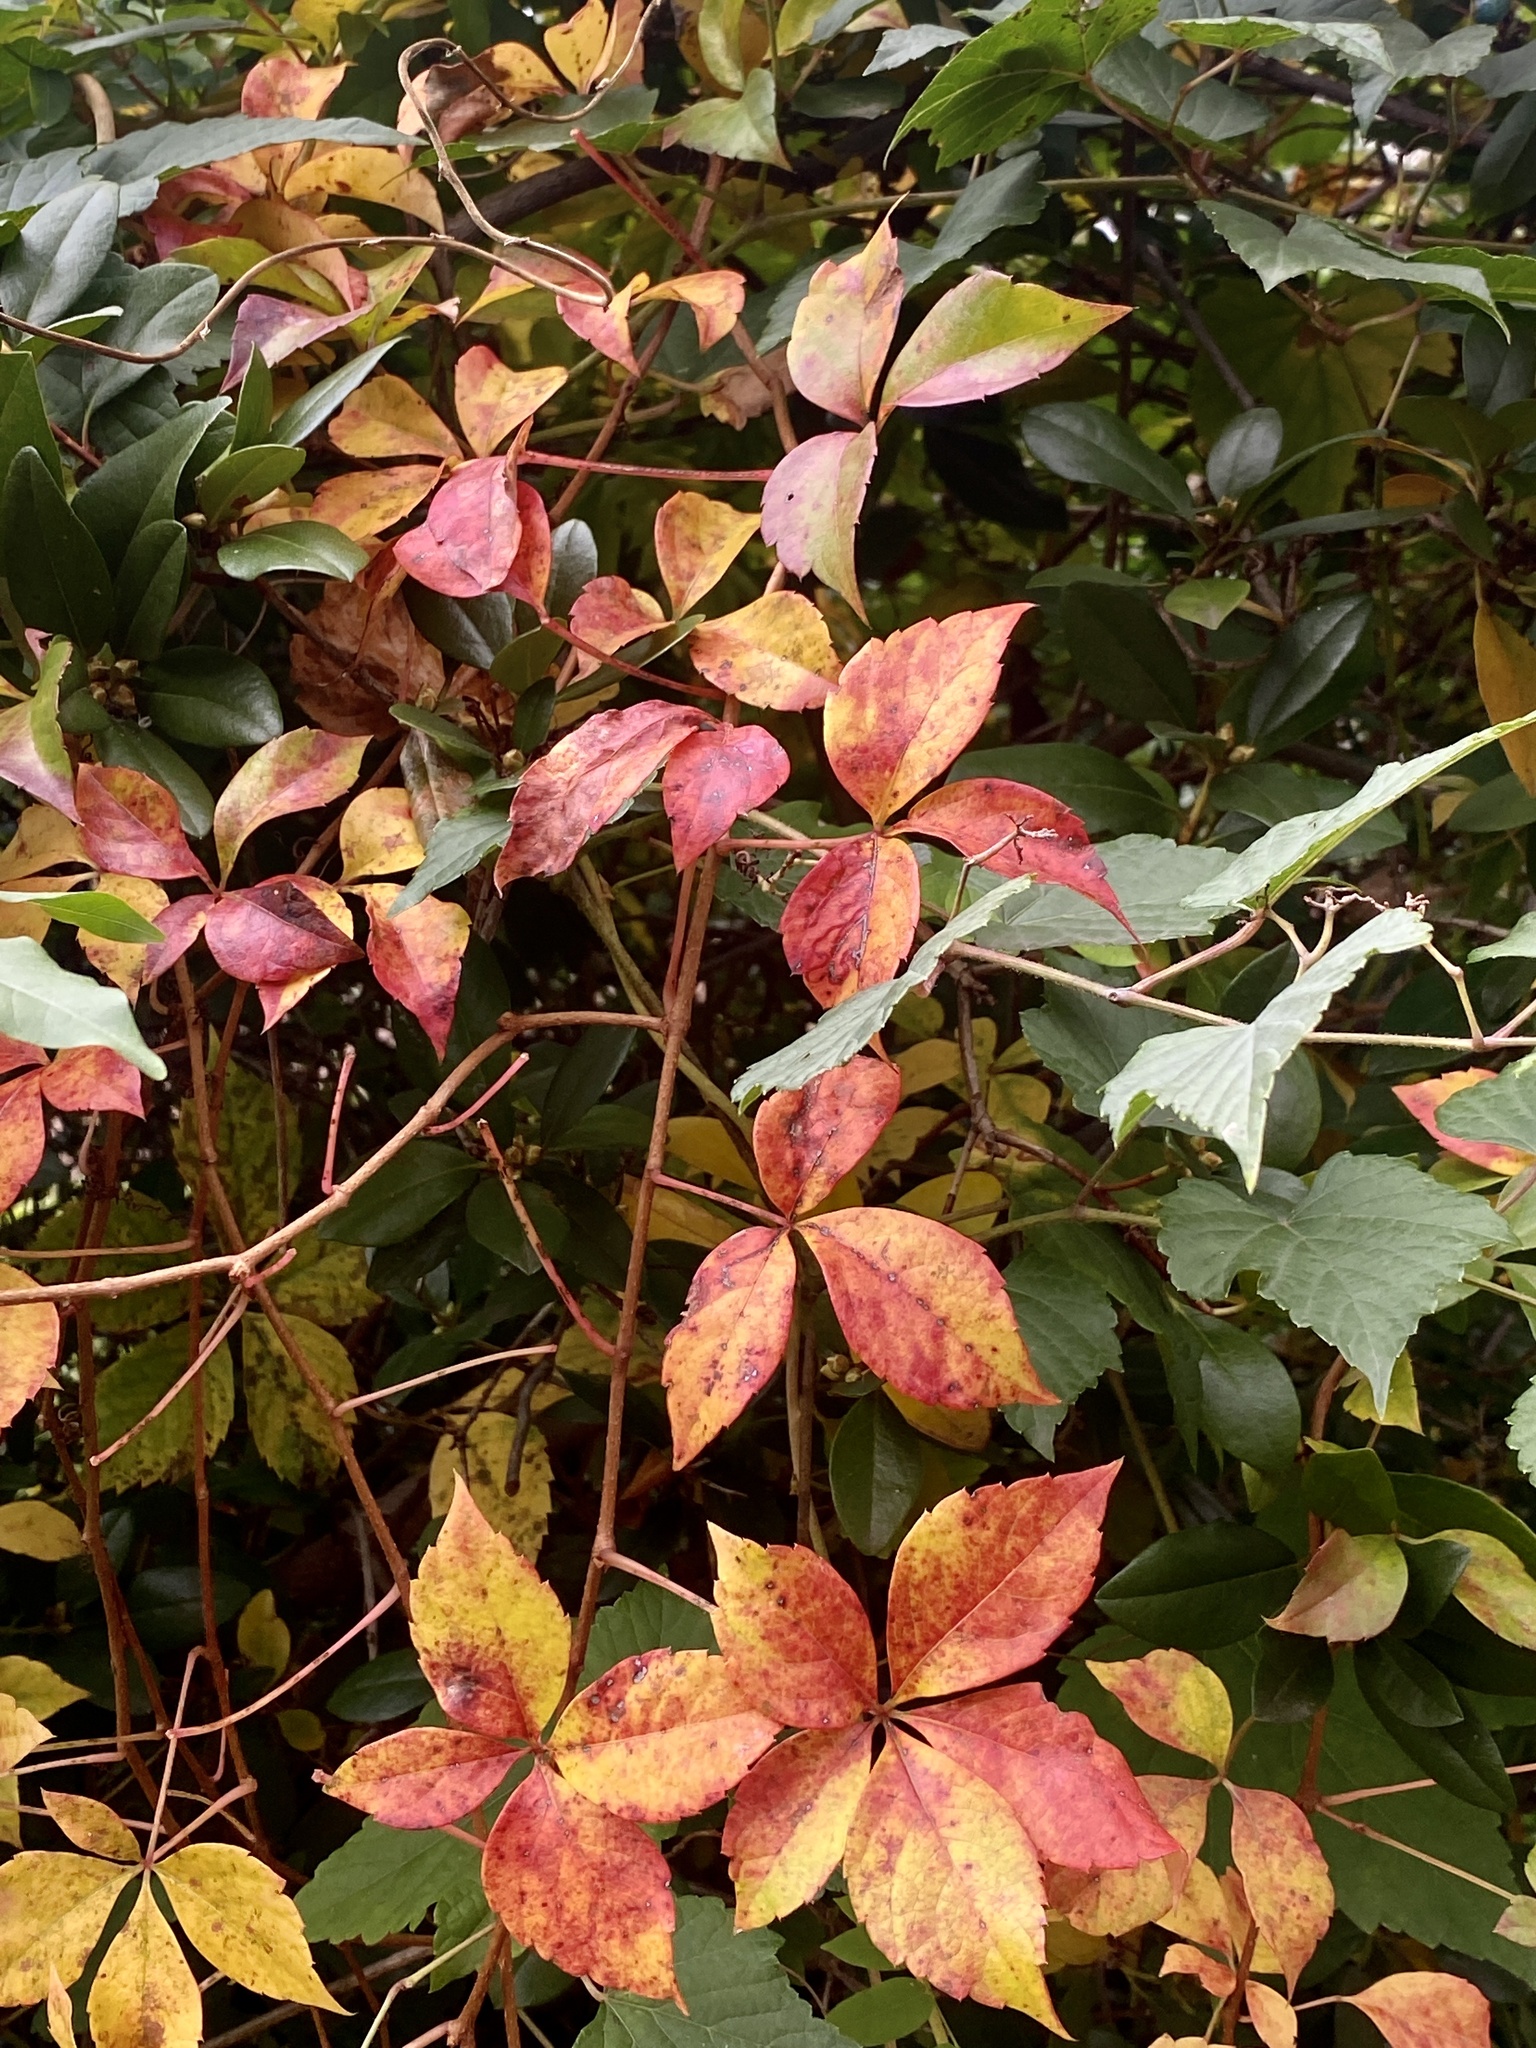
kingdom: Plantae
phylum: Tracheophyta
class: Magnoliopsida
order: Vitales
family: Vitaceae
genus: Parthenocissus
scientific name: Parthenocissus quinquefolia
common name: Virginia-creeper
